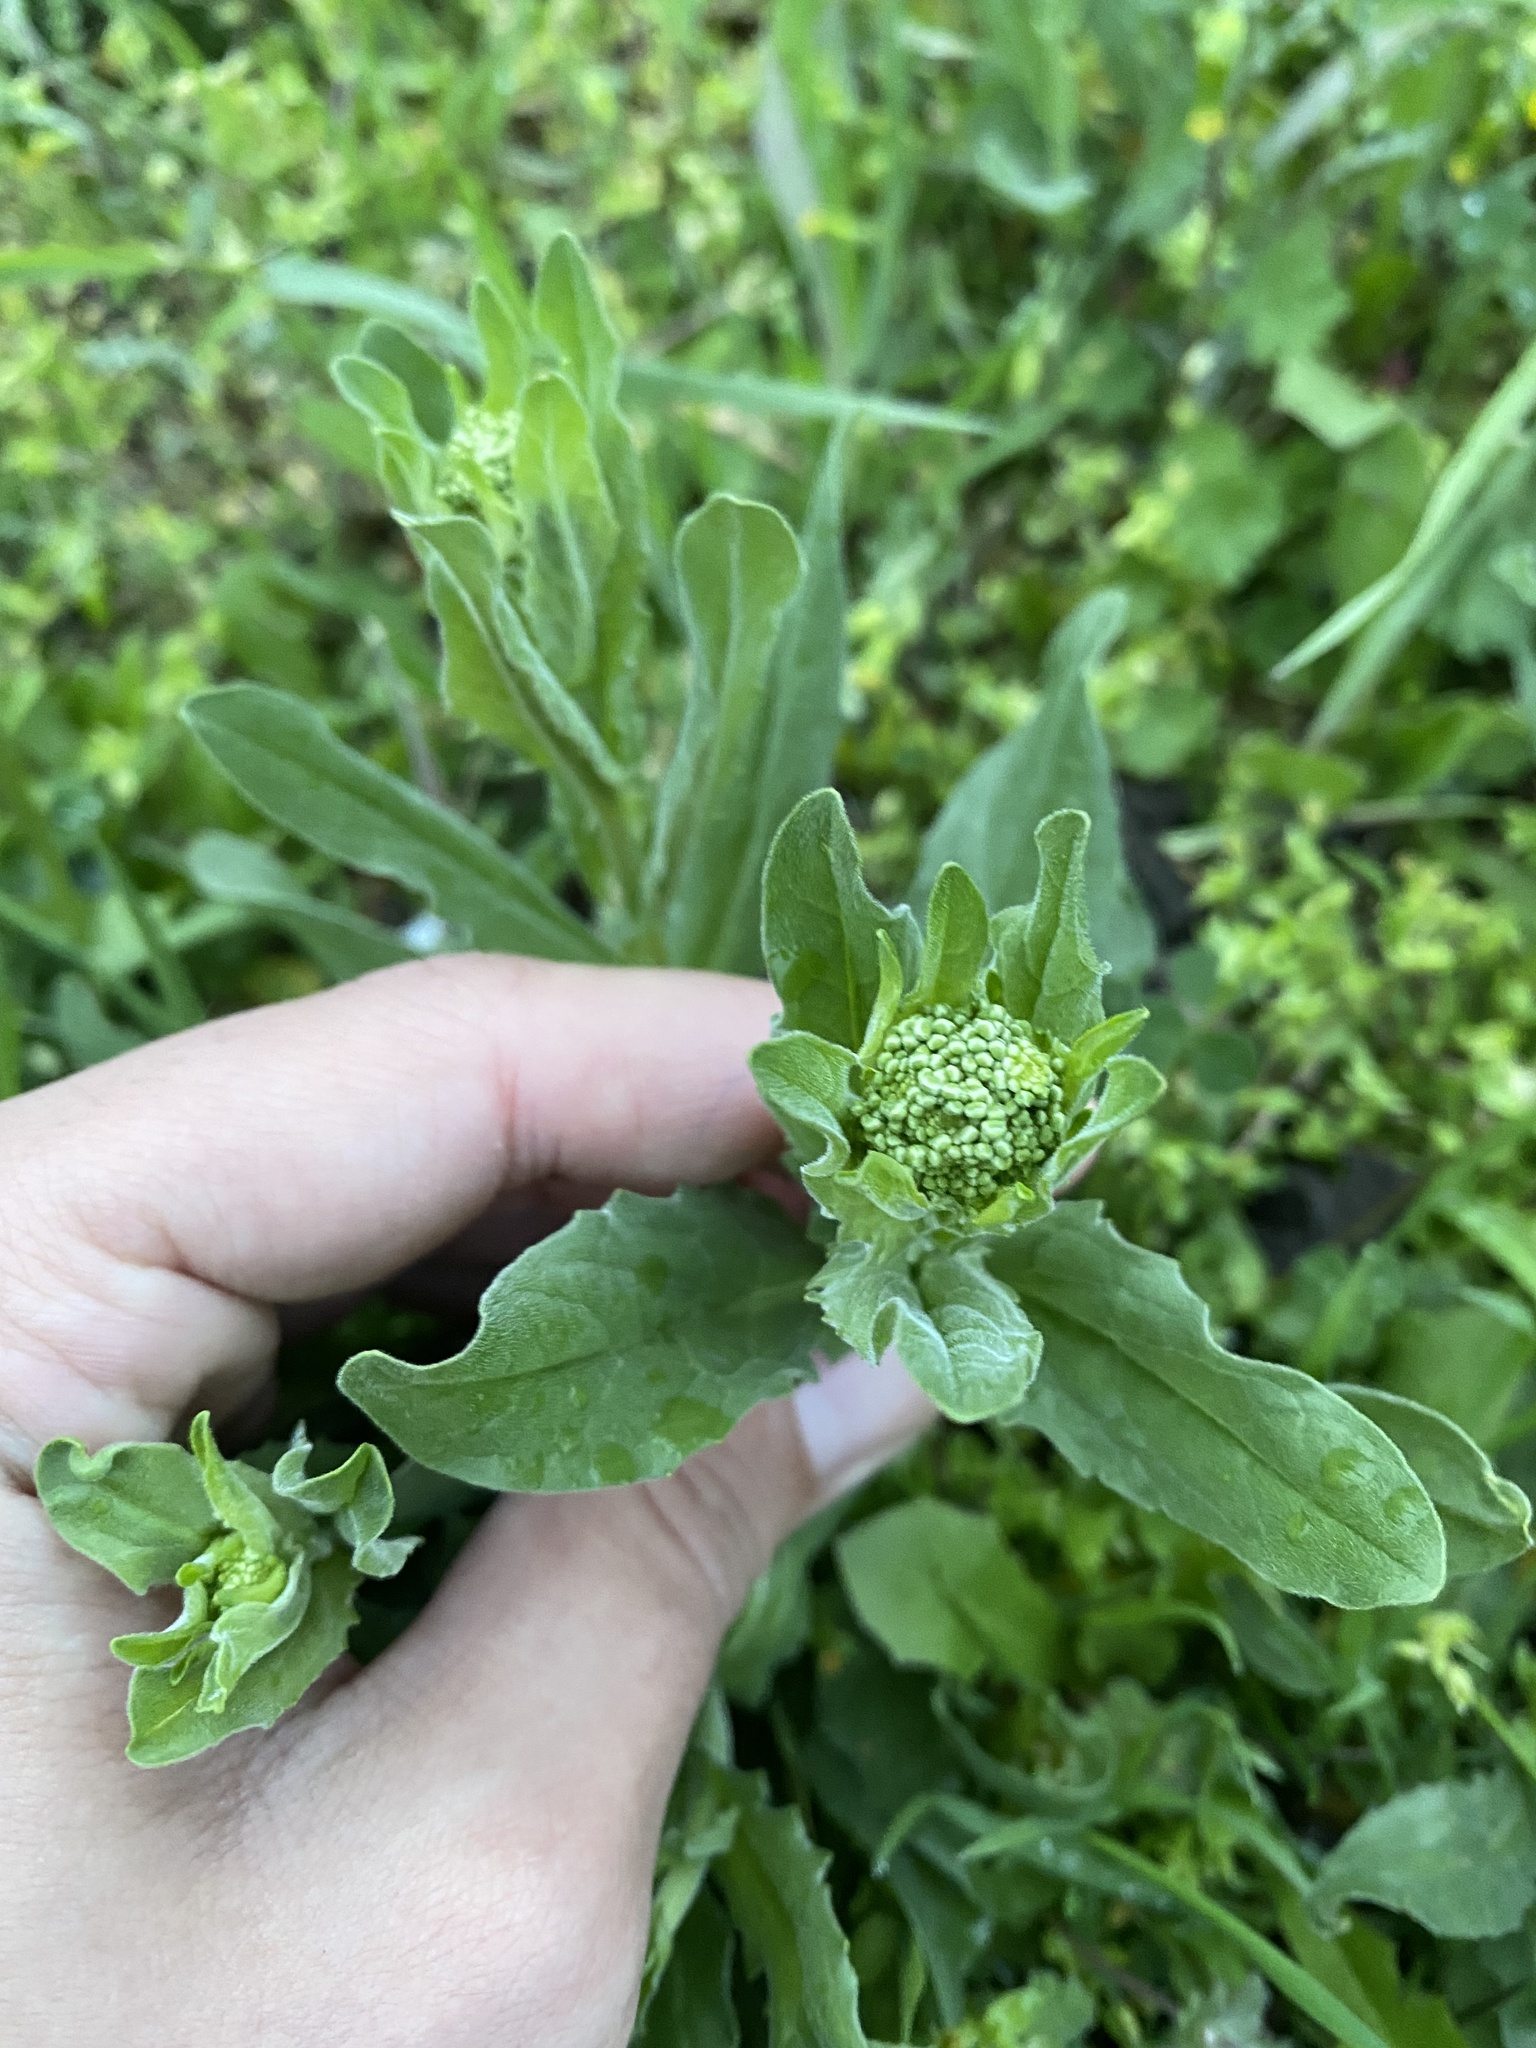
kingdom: Plantae
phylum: Tracheophyta
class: Magnoliopsida
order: Brassicales
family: Brassicaceae
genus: Lepidium
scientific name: Lepidium draba
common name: Hoary cress
